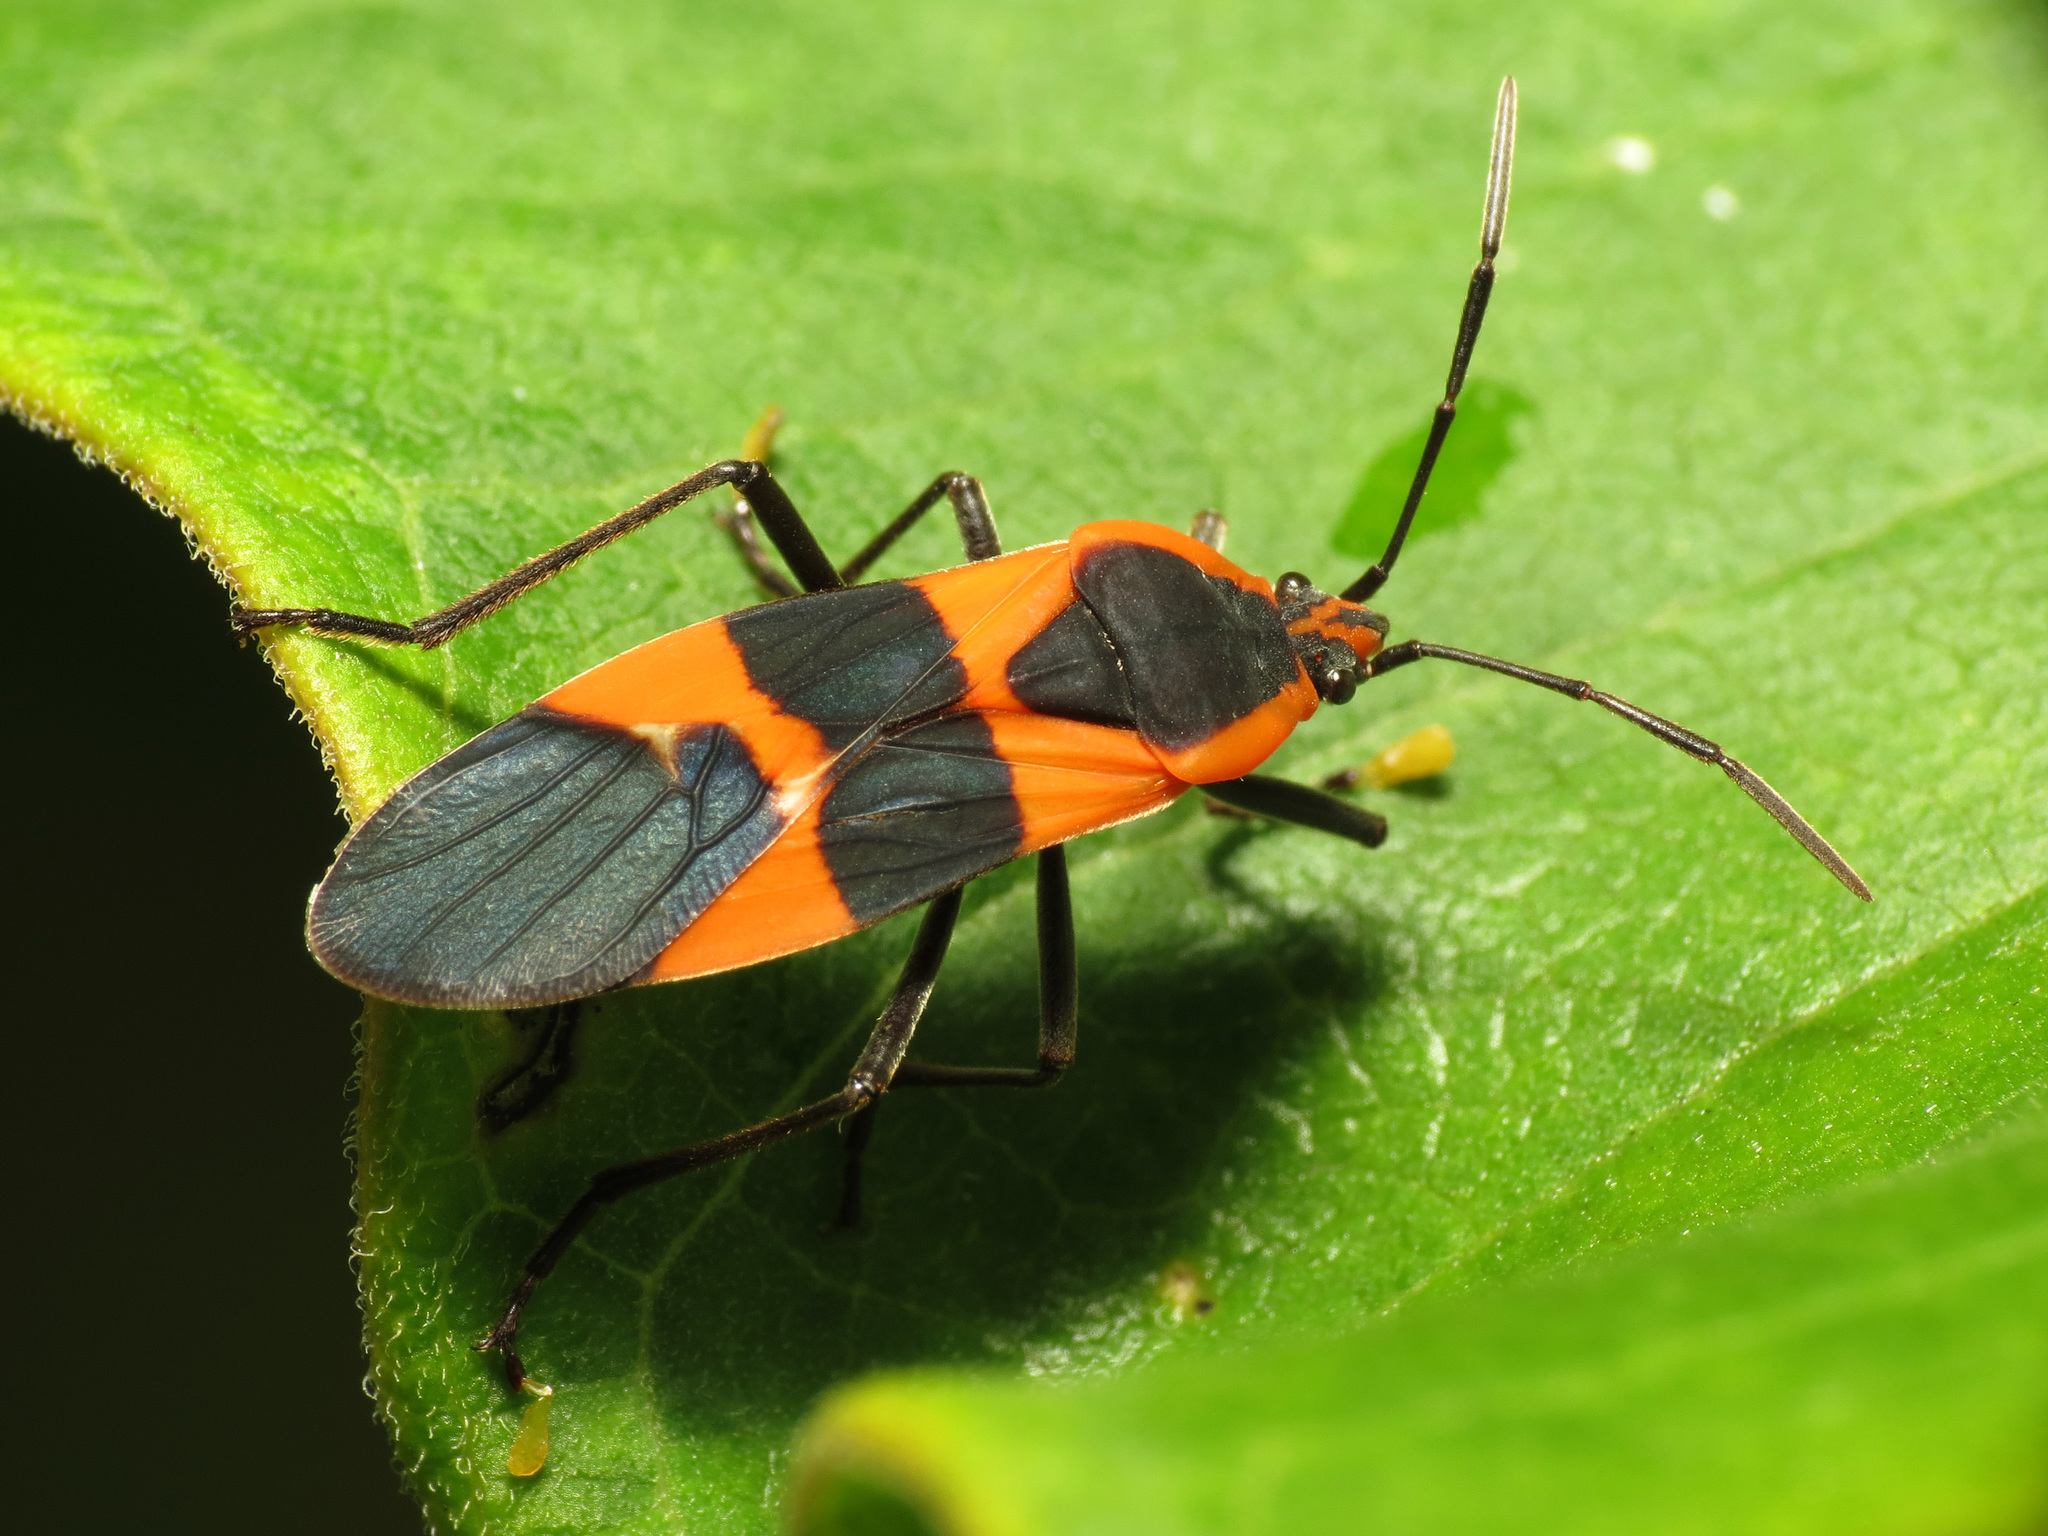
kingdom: Animalia
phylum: Arthropoda
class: Insecta
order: Hemiptera
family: Lygaeidae
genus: Oncopeltus
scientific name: Oncopeltus fasciatus
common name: Large milkweed bug
